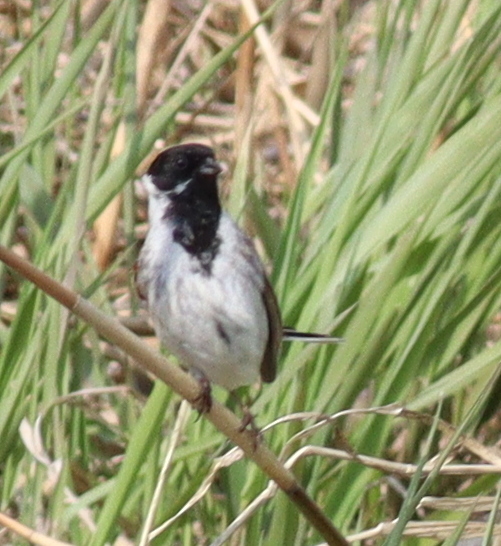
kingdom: Animalia
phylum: Chordata
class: Aves
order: Passeriformes
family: Emberizidae
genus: Emberiza
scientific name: Emberiza schoeniclus
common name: Reed bunting
